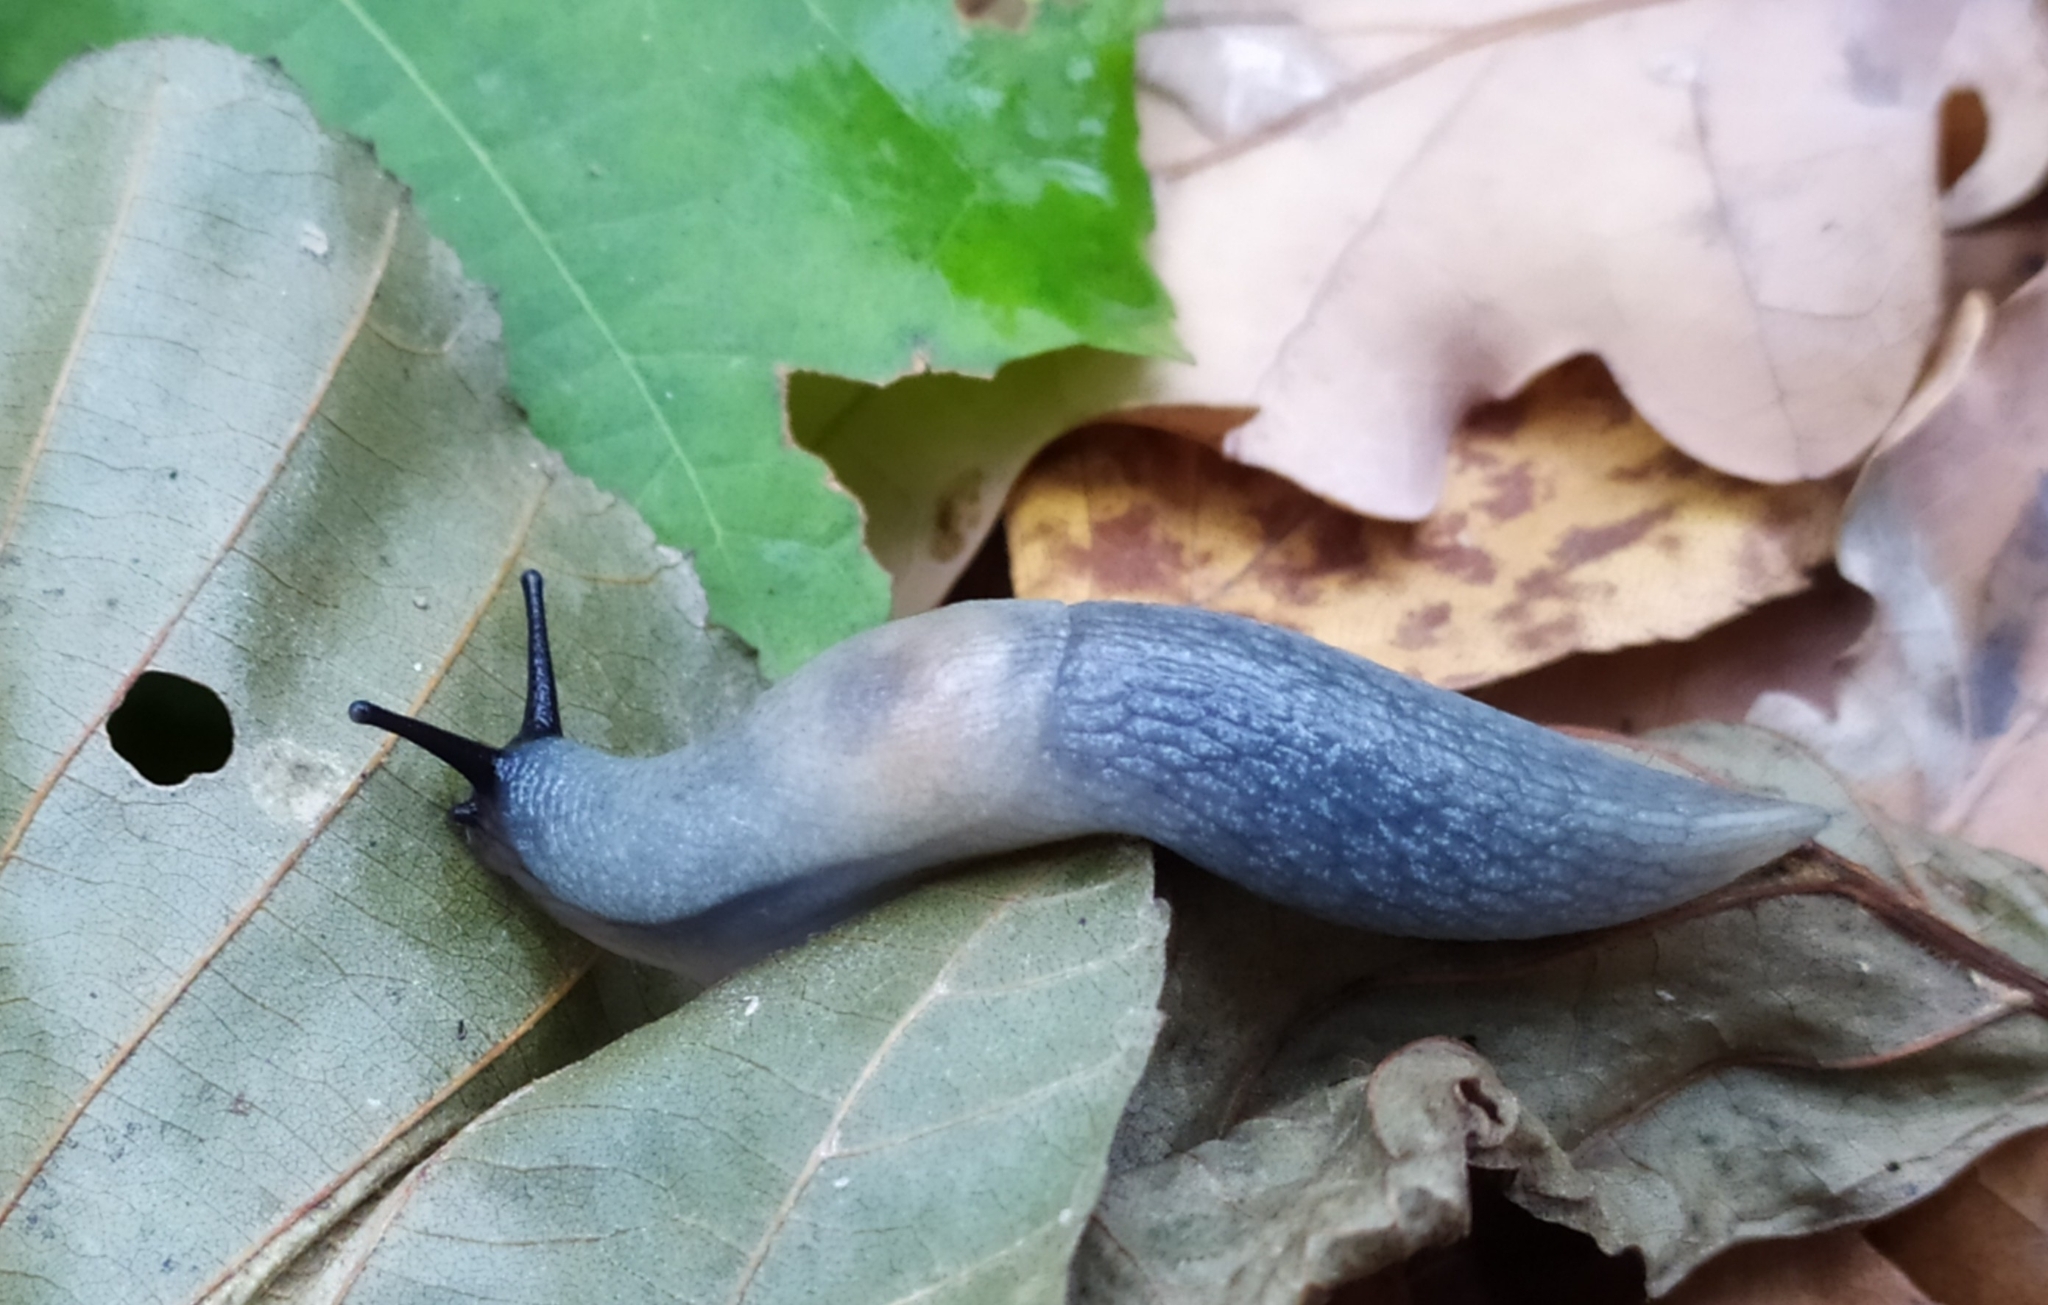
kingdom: Animalia
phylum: Mollusca
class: Gastropoda
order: Stylommatophora
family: Agriolimacidae
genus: Krynickillus
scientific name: Krynickillus melanocephalus
